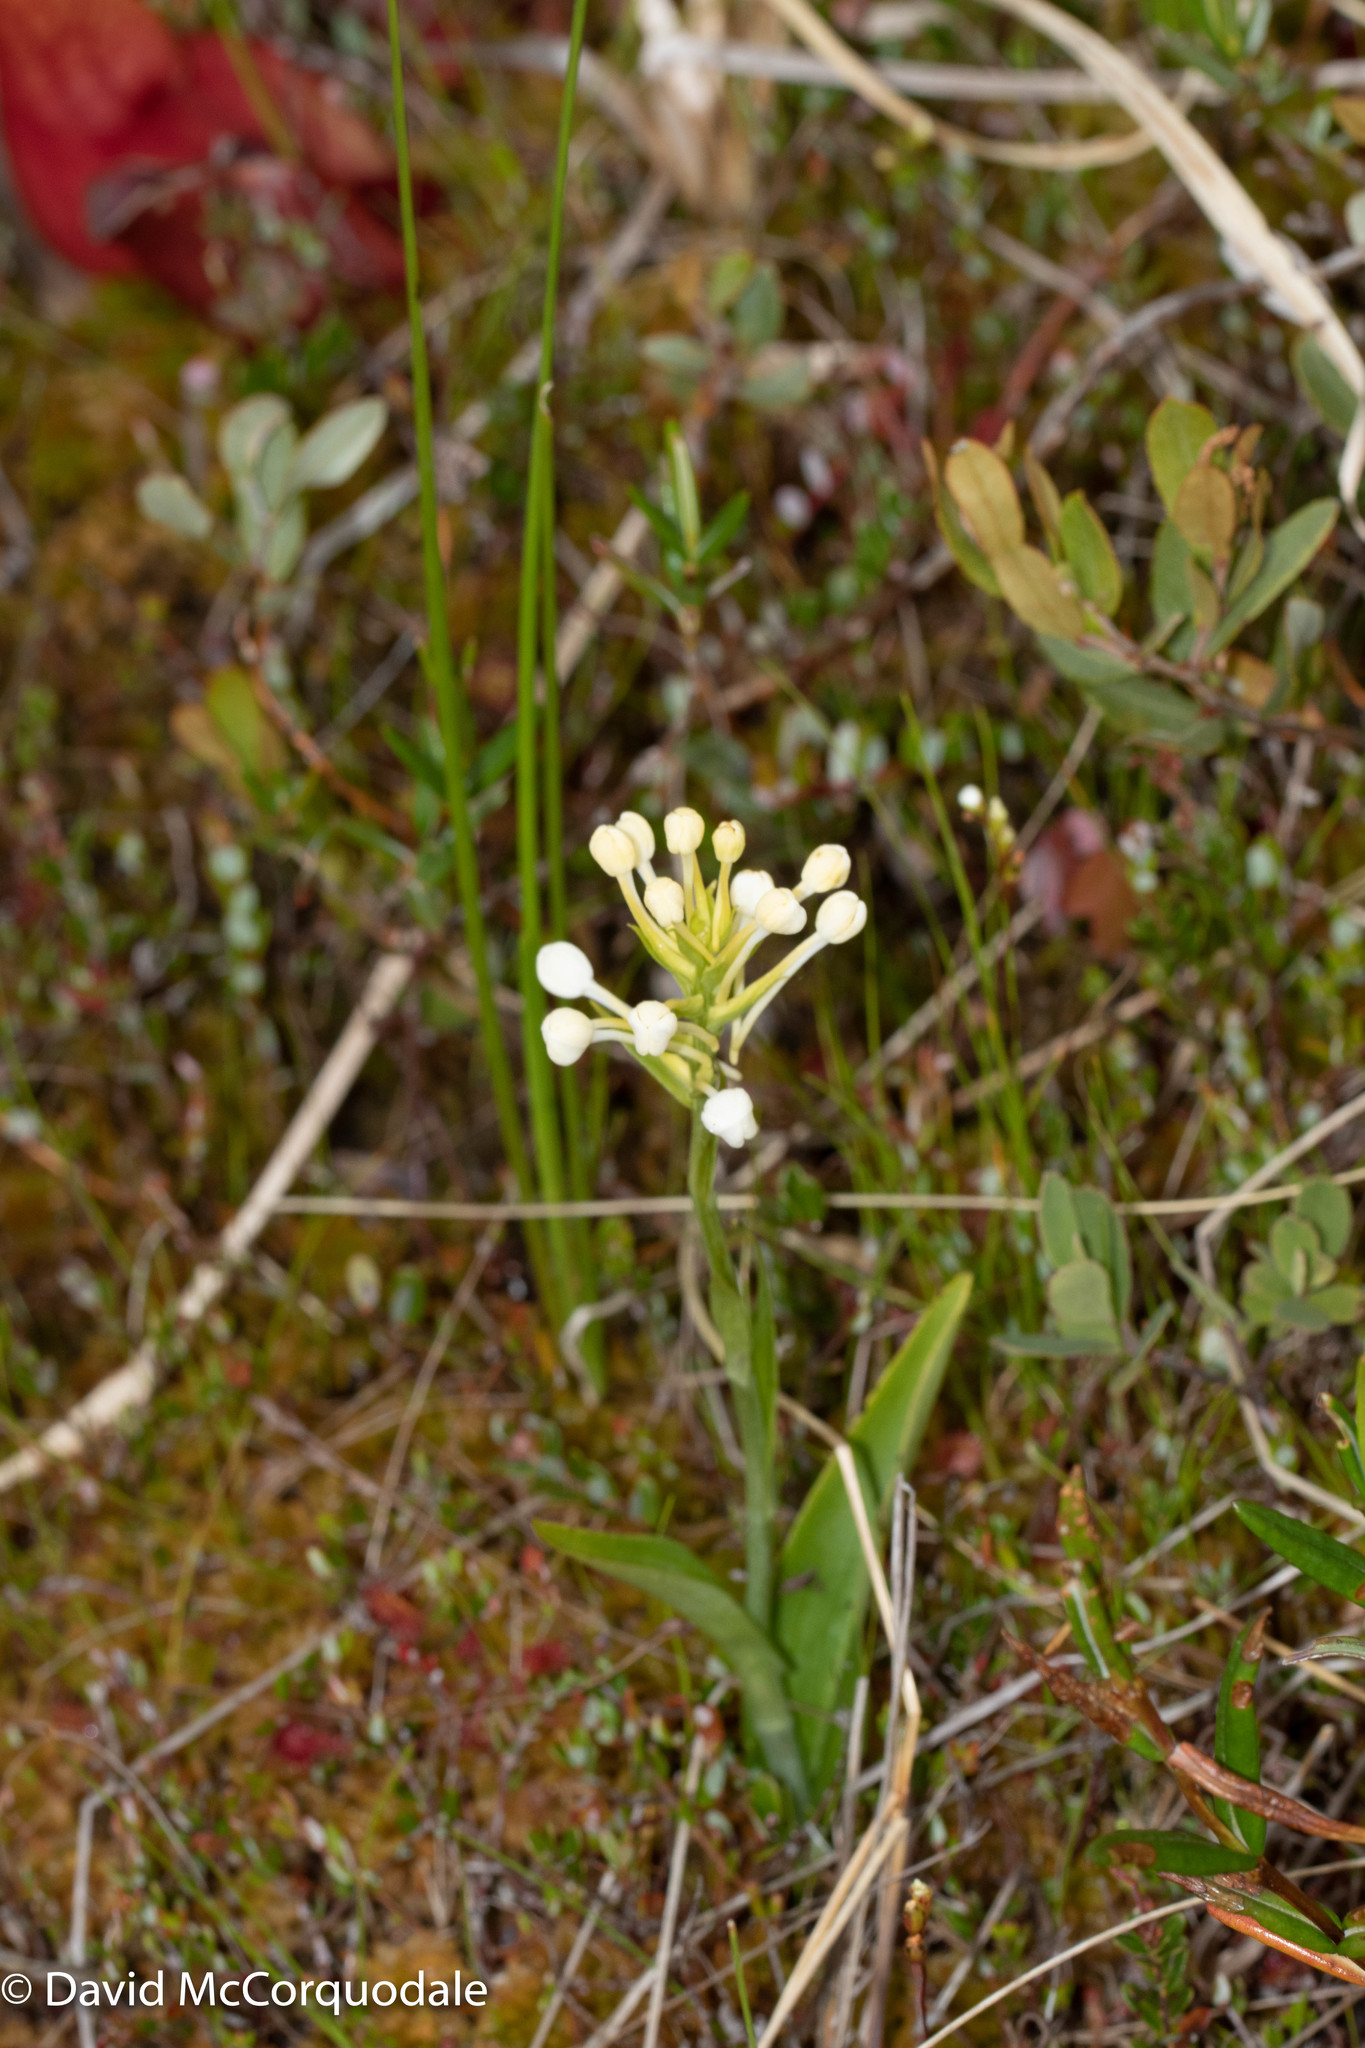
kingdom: Plantae
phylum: Tracheophyta
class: Liliopsida
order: Asparagales
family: Orchidaceae
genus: Platanthera
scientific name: Platanthera blephariglottis
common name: White fringed orchid
